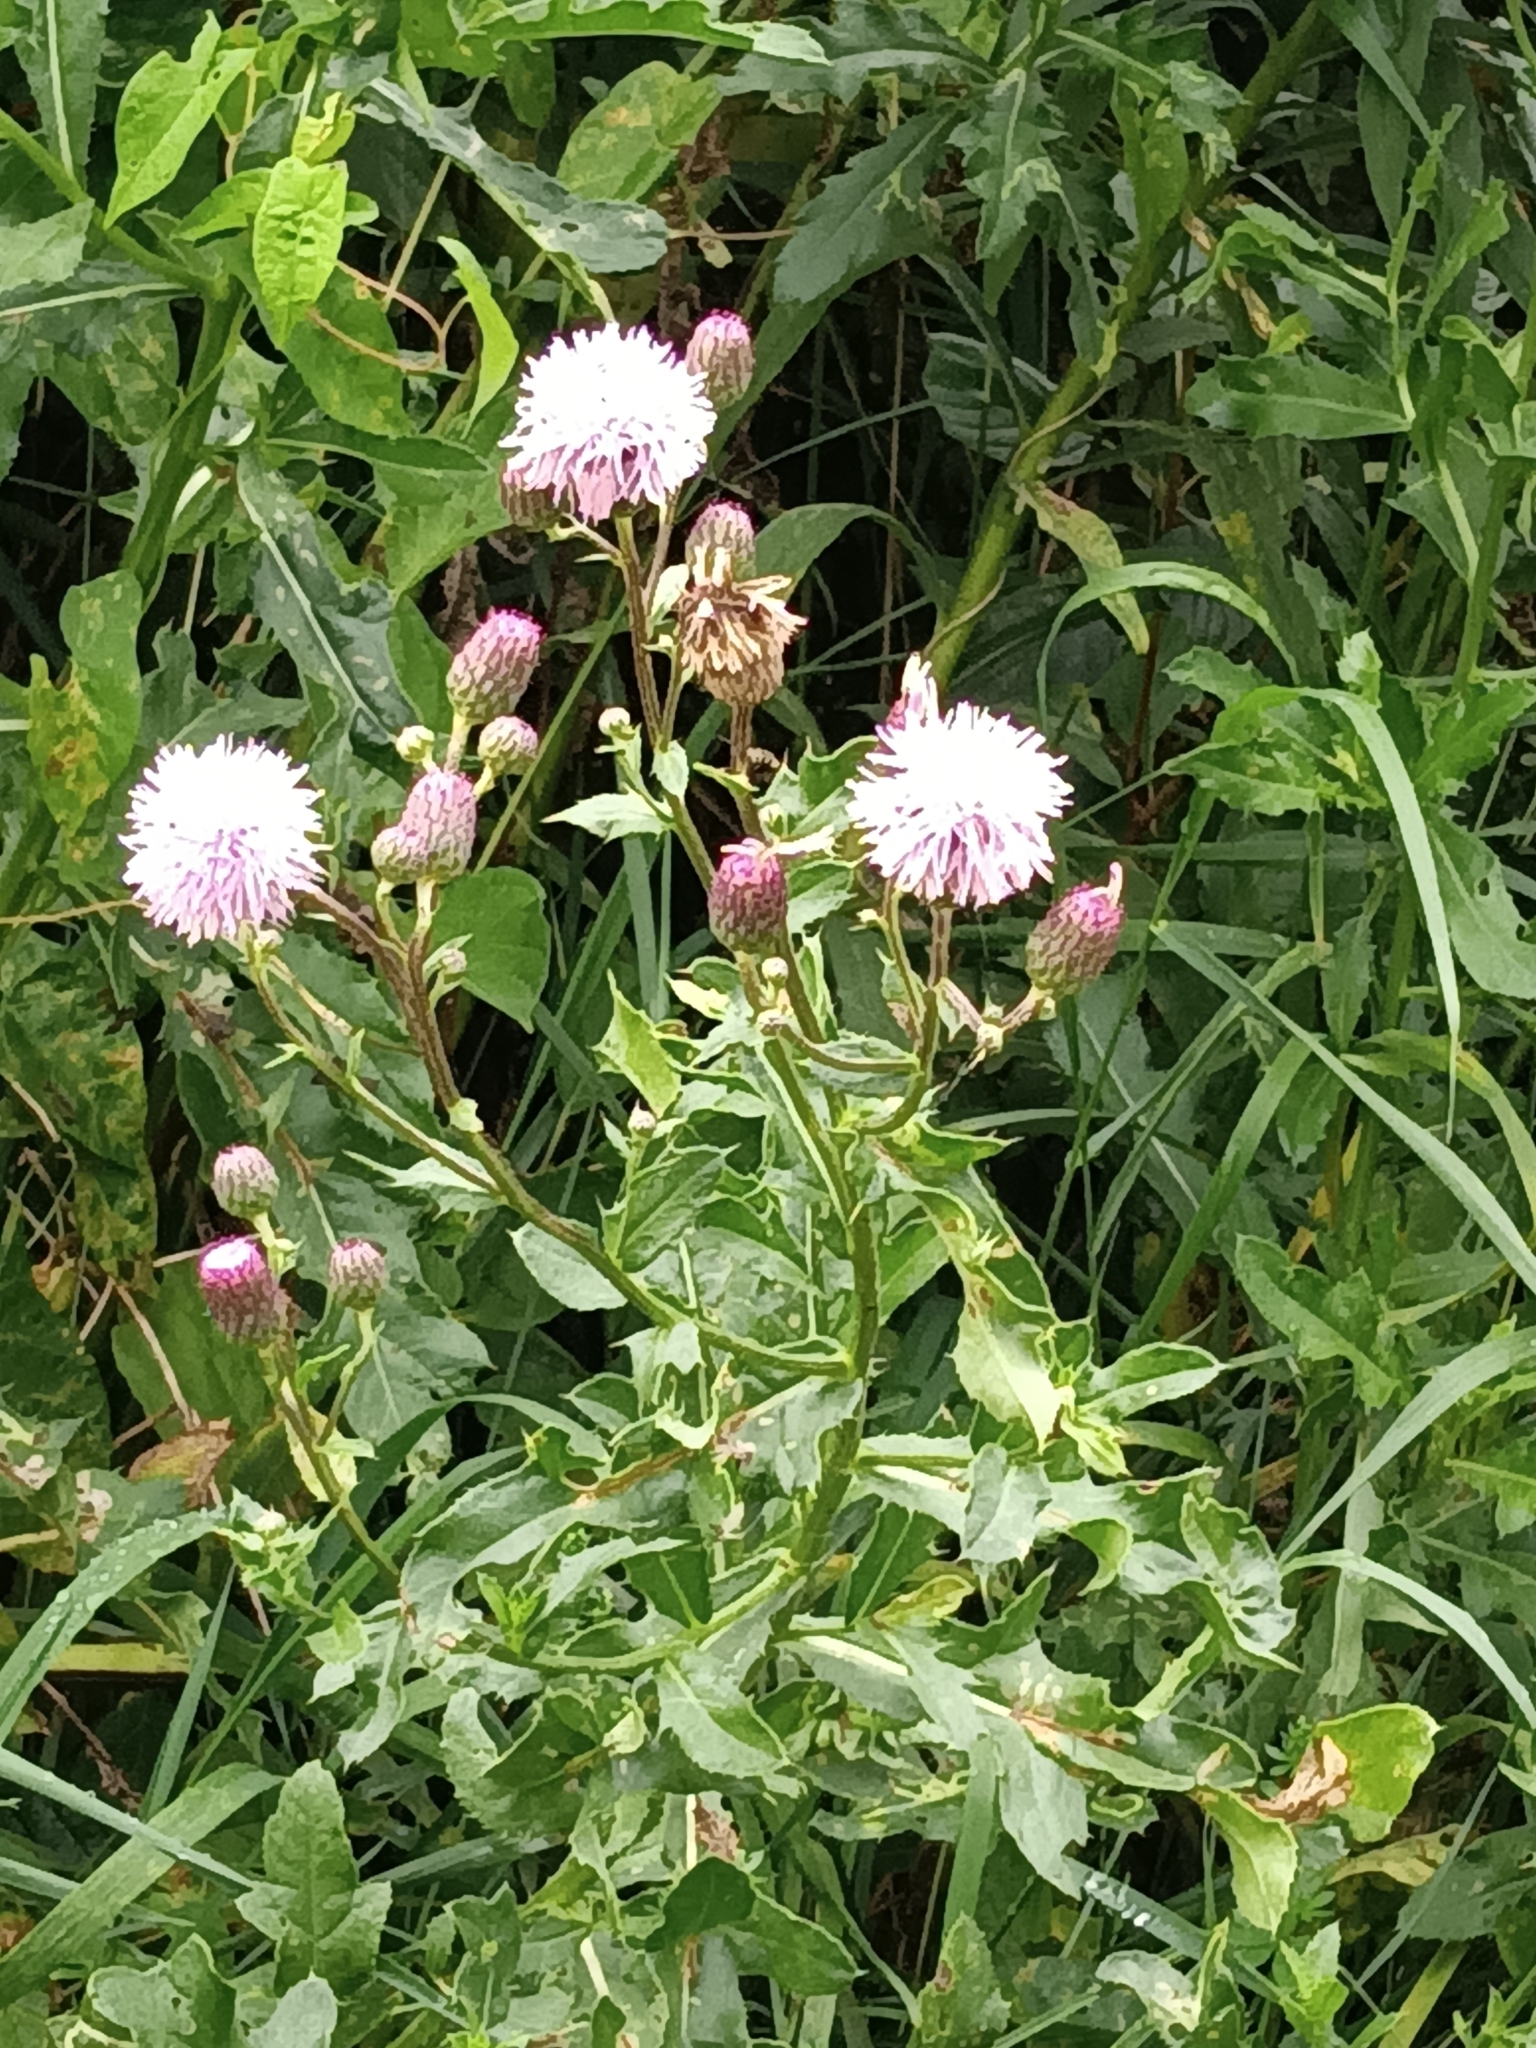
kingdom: Plantae
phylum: Tracheophyta
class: Magnoliopsida
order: Asterales
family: Asteraceae
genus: Cirsium
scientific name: Cirsium arvense
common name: Creeping thistle
